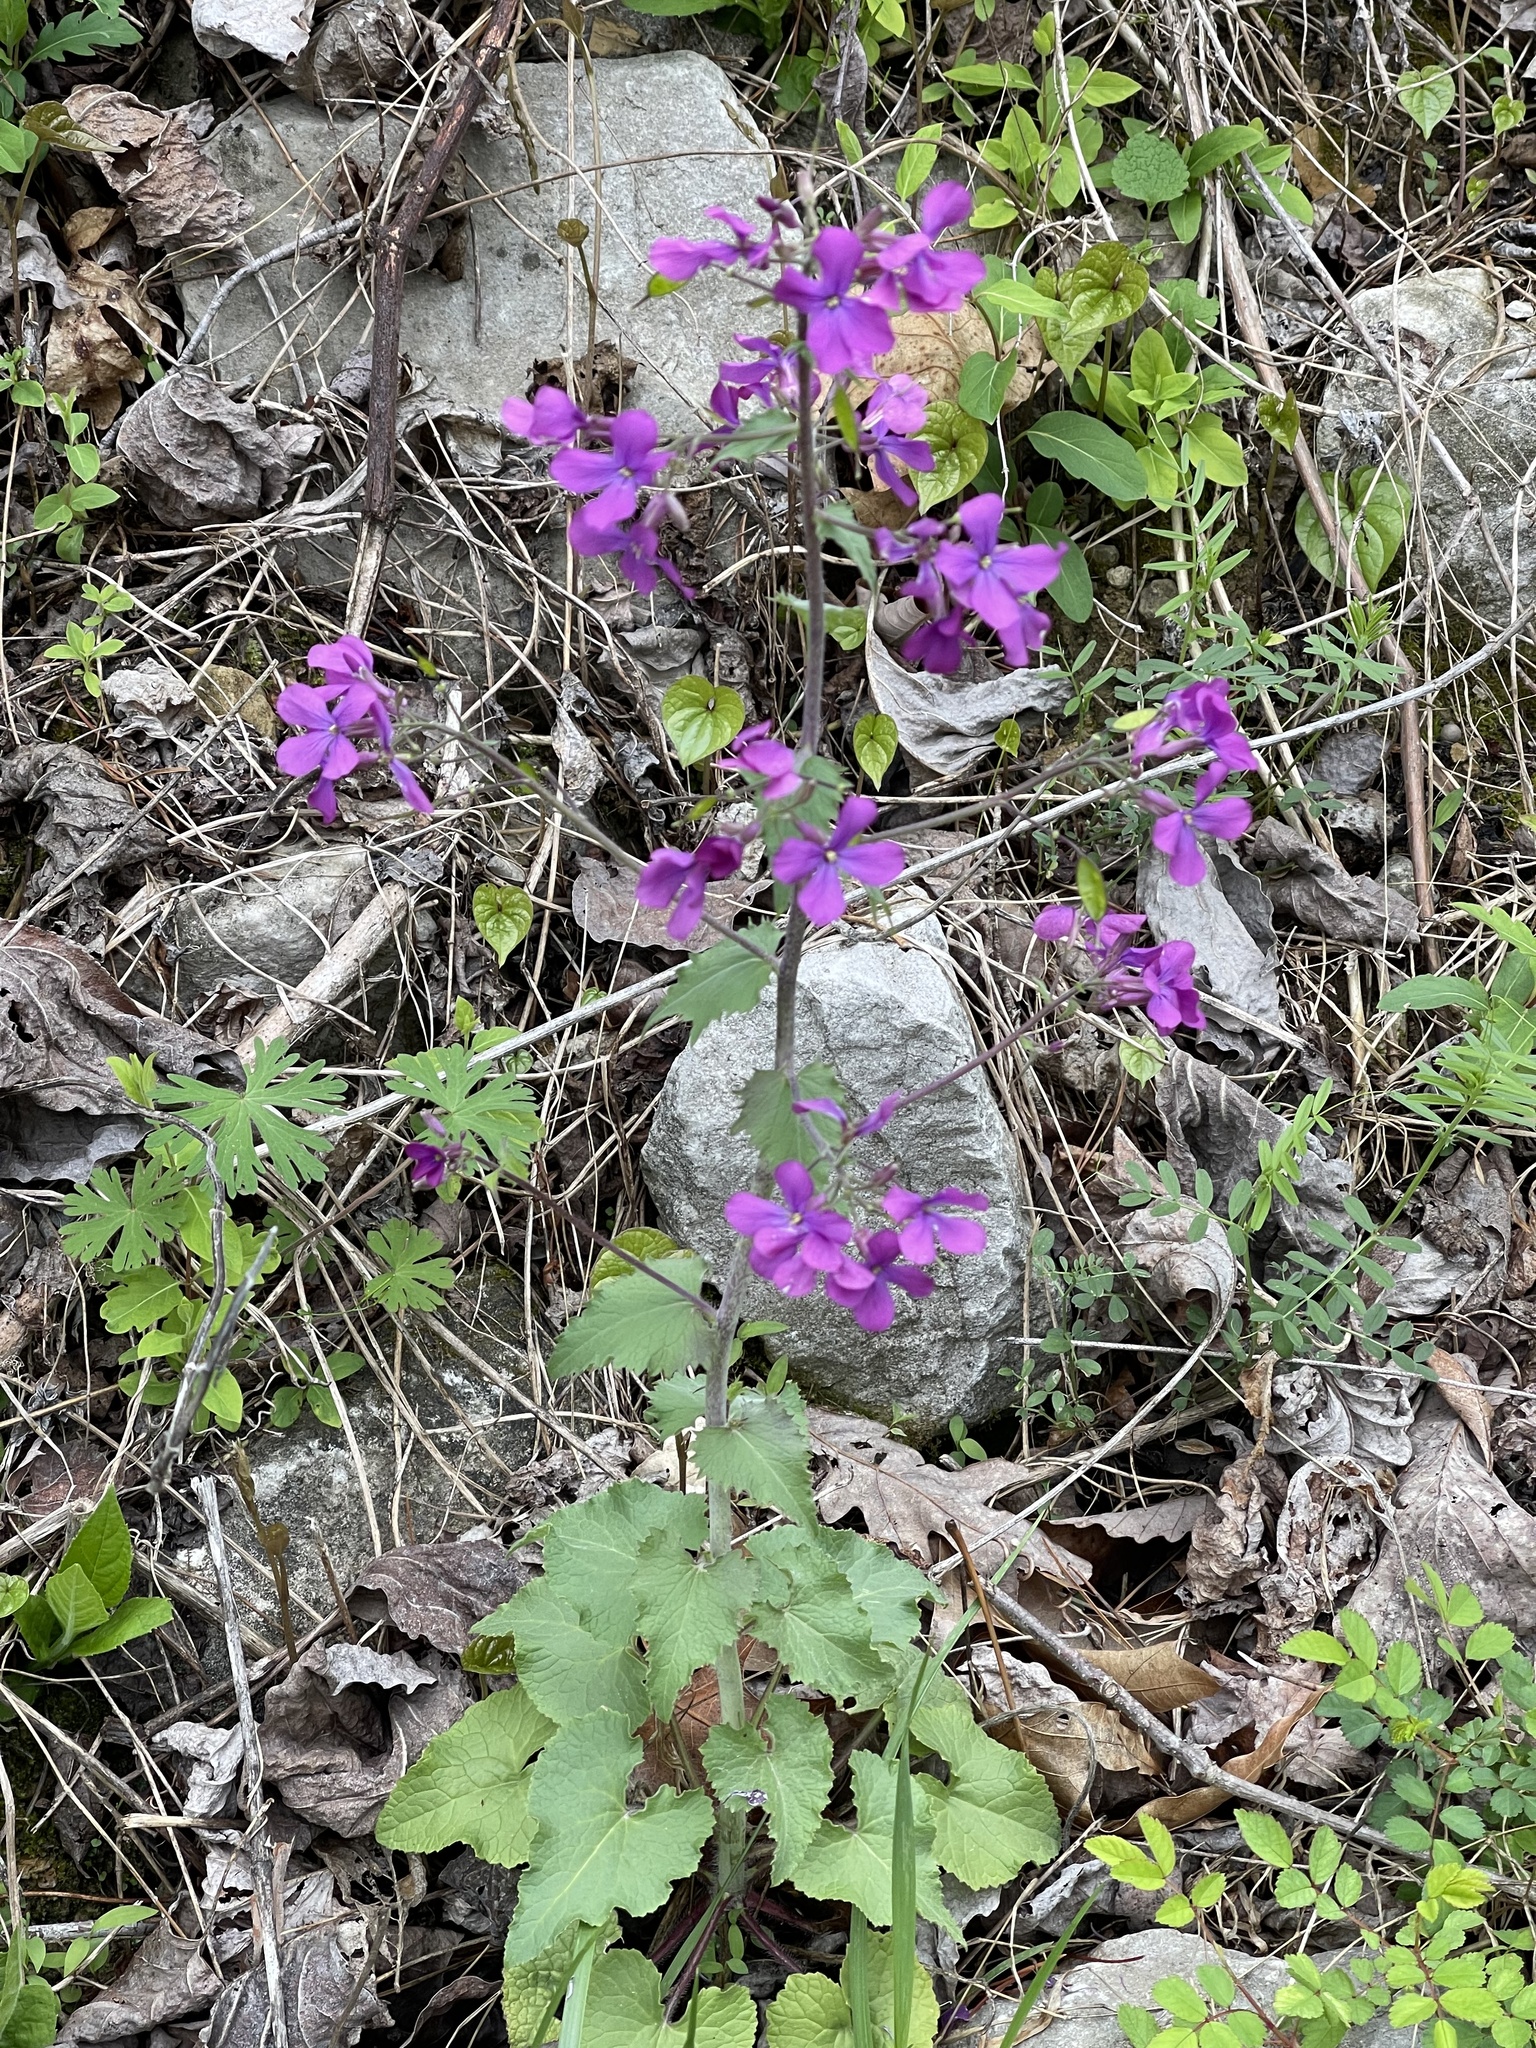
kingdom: Plantae
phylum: Tracheophyta
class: Magnoliopsida
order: Brassicales
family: Brassicaceae
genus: Lunaria
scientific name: Lunaria annua
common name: Honesty
